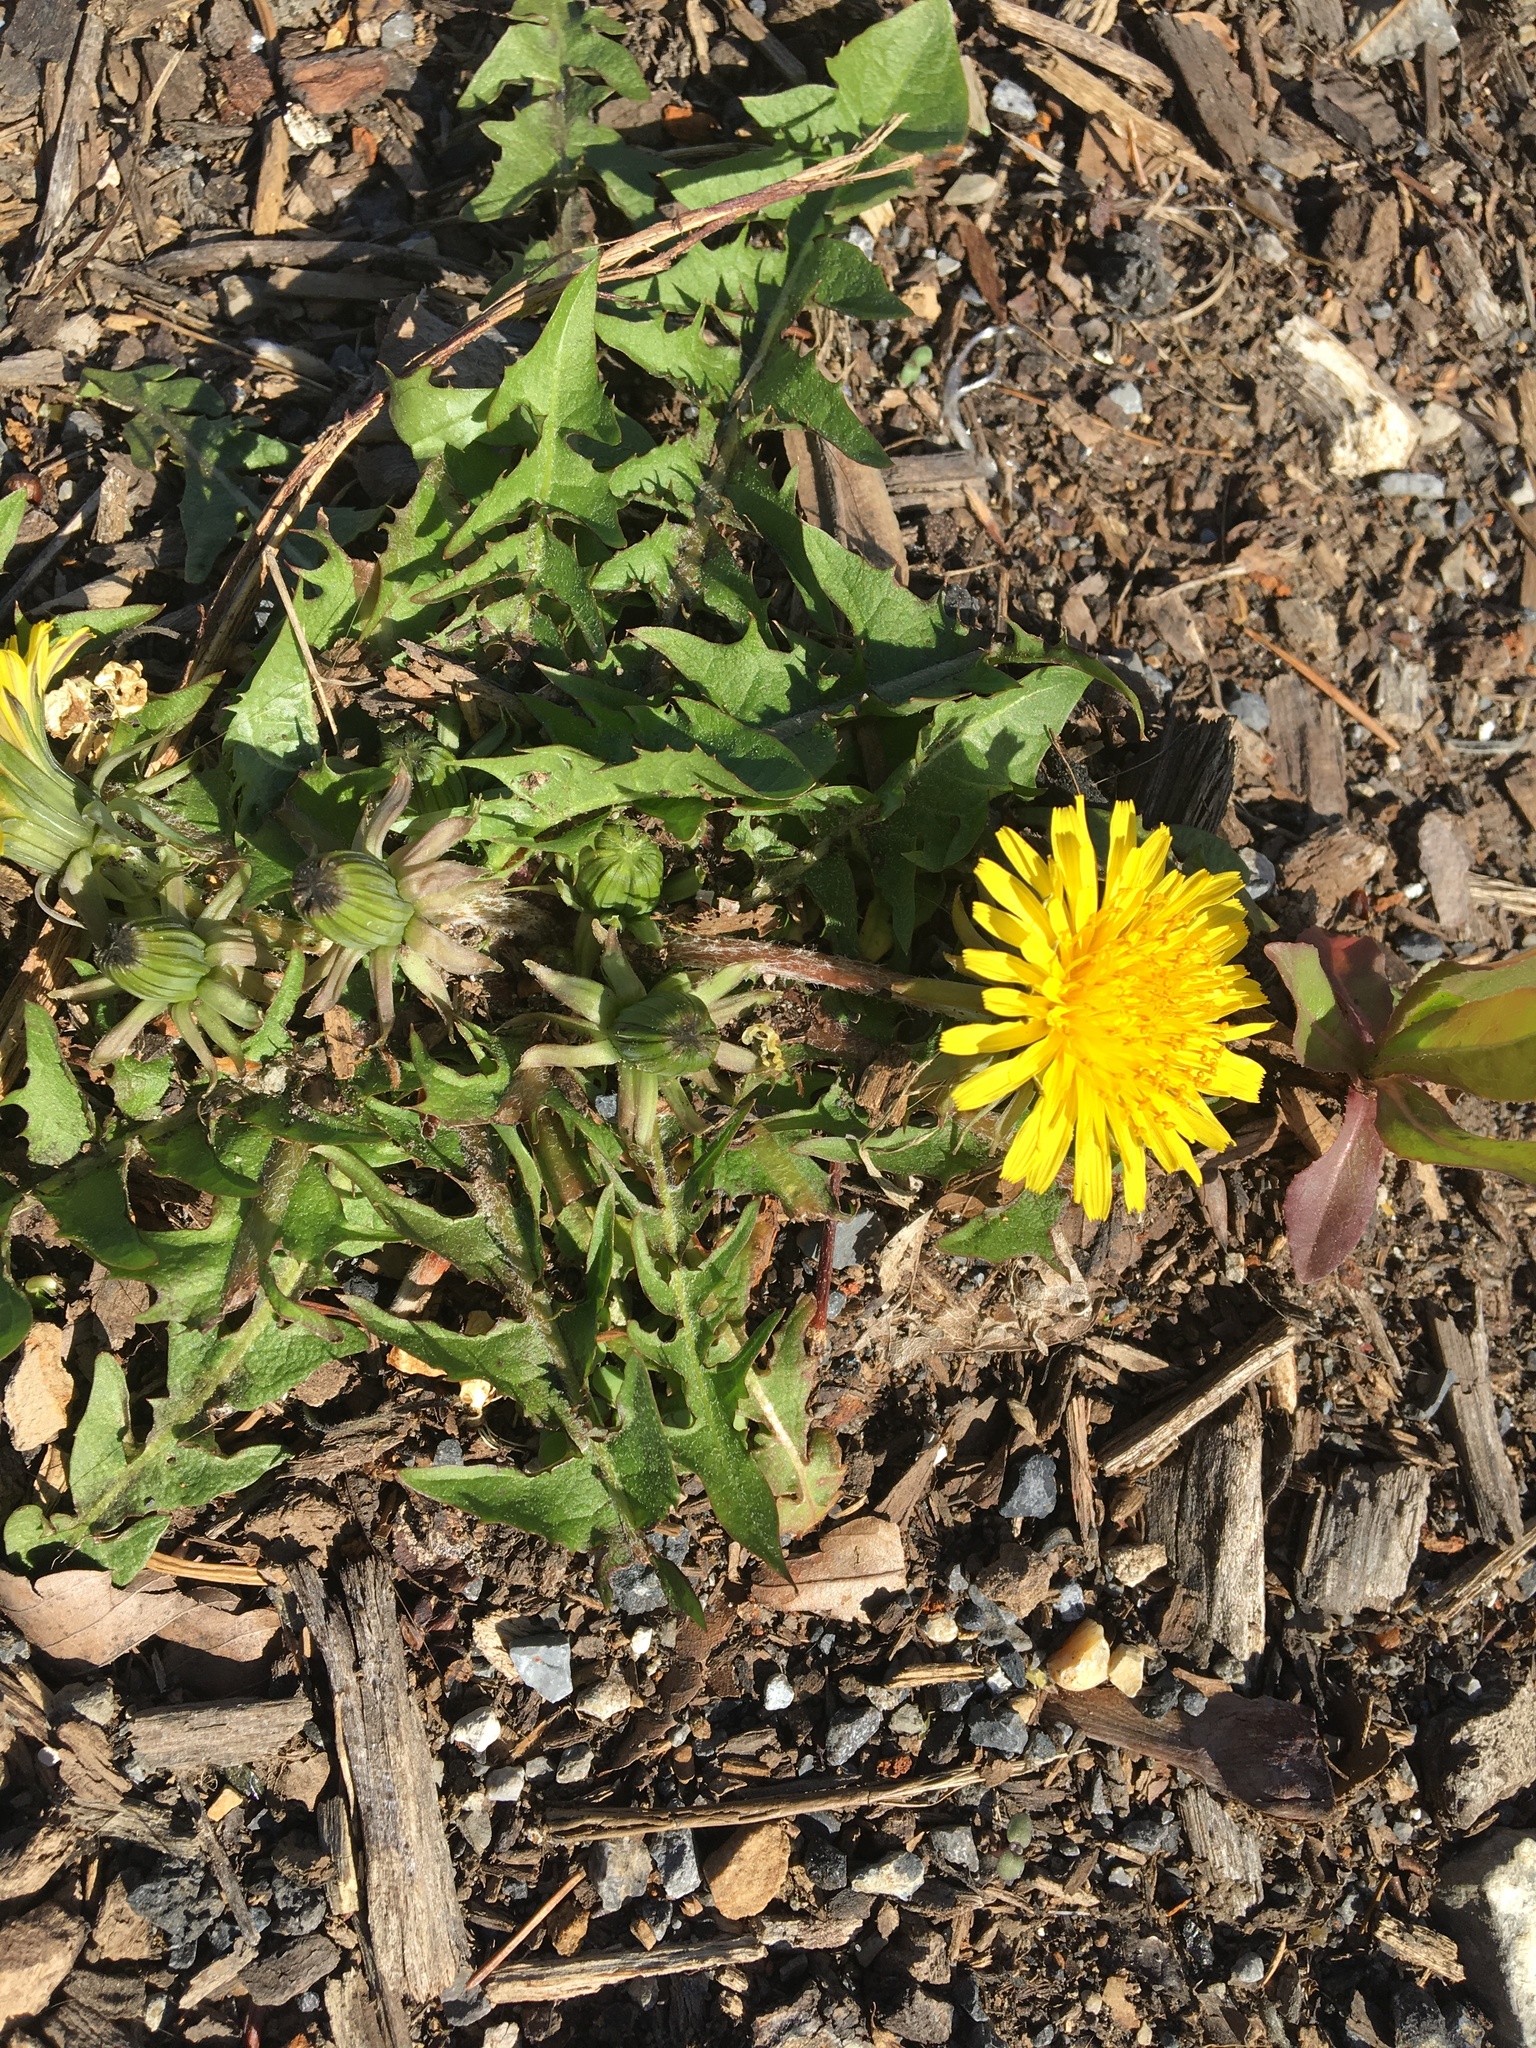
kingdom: Plantae
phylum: Tracheophyta
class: Magnoliopsida
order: Asterales
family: Asteraceae
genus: Taraxacum
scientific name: Taraxacum officinale
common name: Common dandelion
